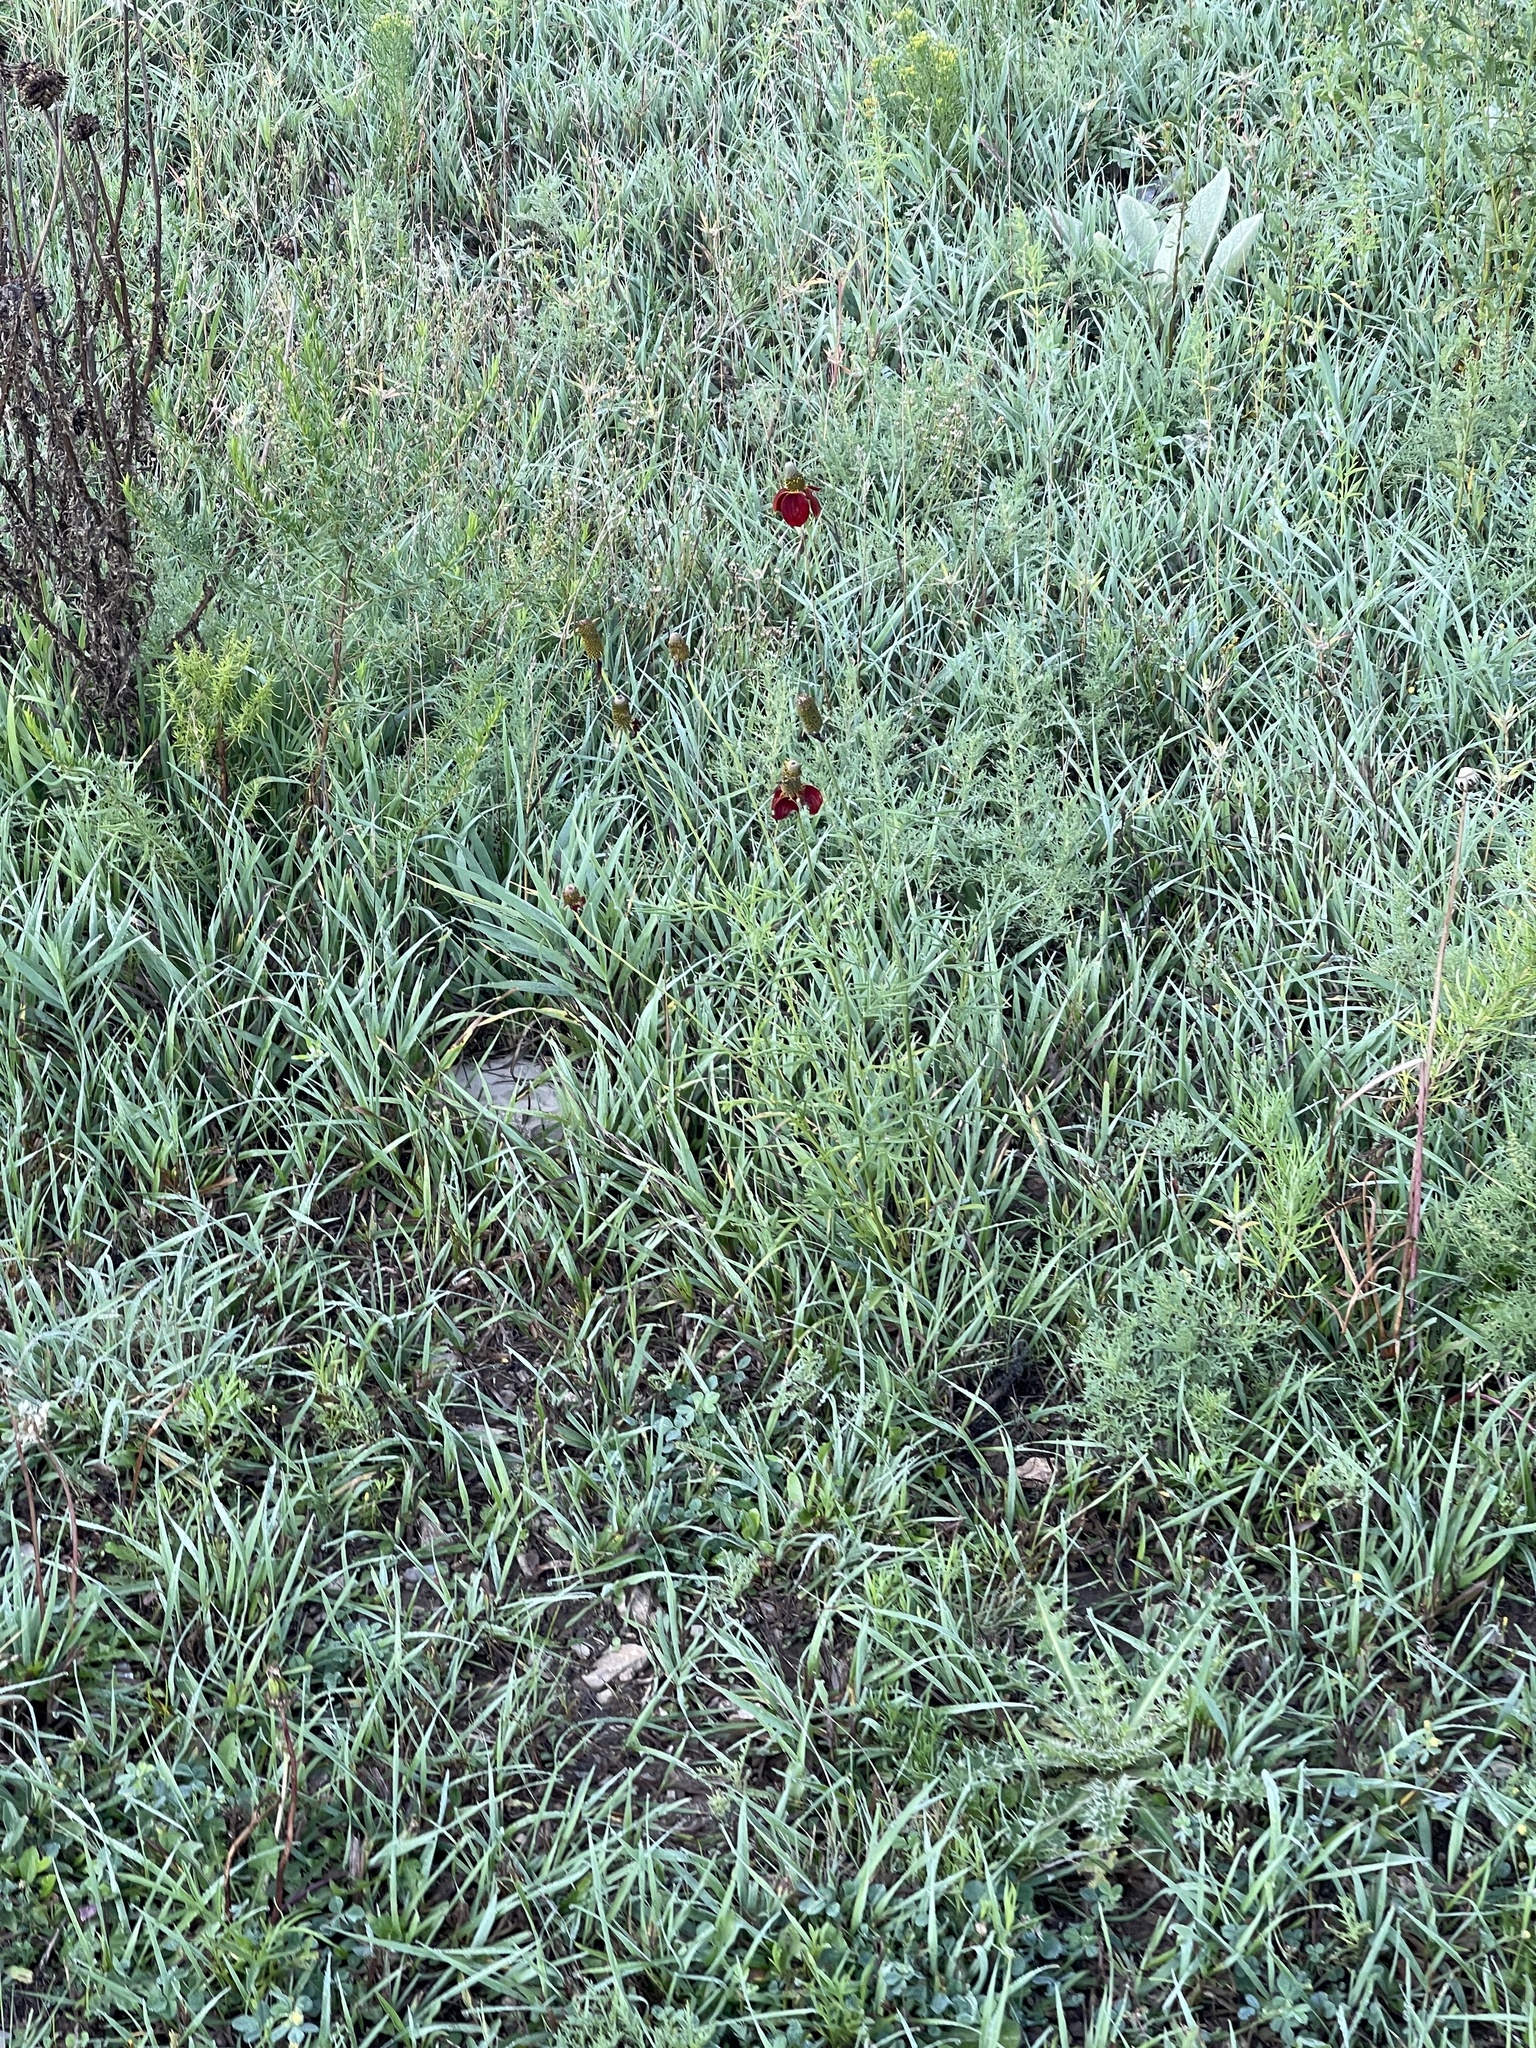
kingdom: Plantae
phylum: Tracheophyta
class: Magnoliopsida
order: Asterales
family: Asteraceae
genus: Ratibida
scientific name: Ratibida columnifera
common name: Prairie coneflower
